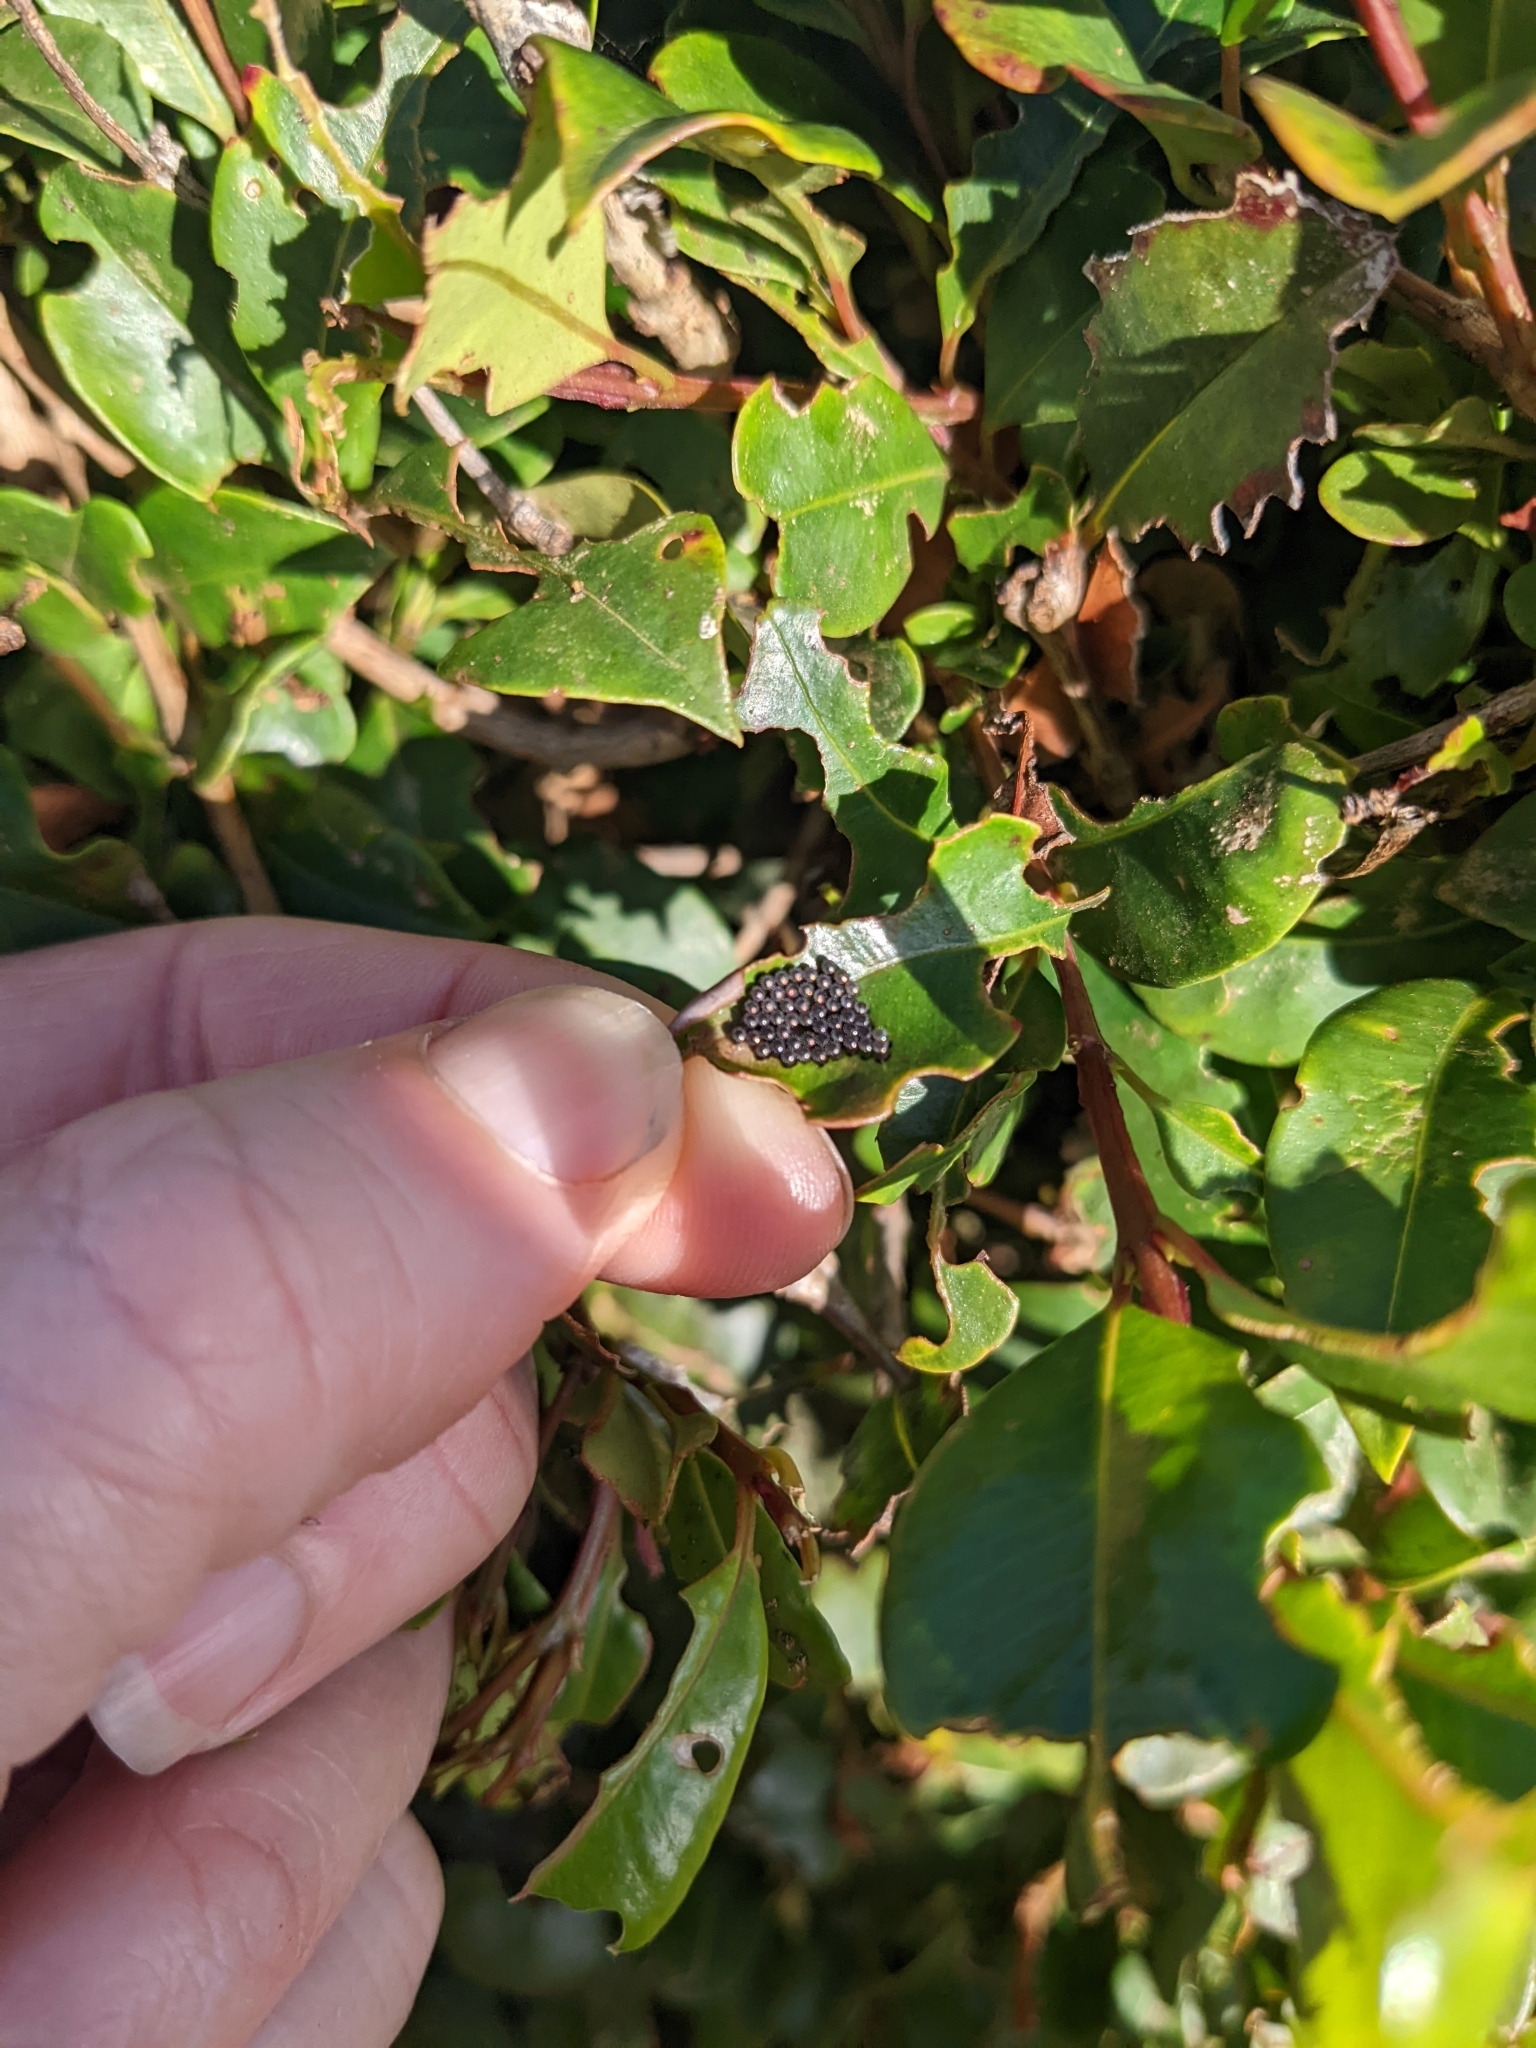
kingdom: Animalia
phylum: Arthropoda
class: Insecta
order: Hemiptera
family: Pentatomidae
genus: Cermatulus
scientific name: Cermatulus nasalis
